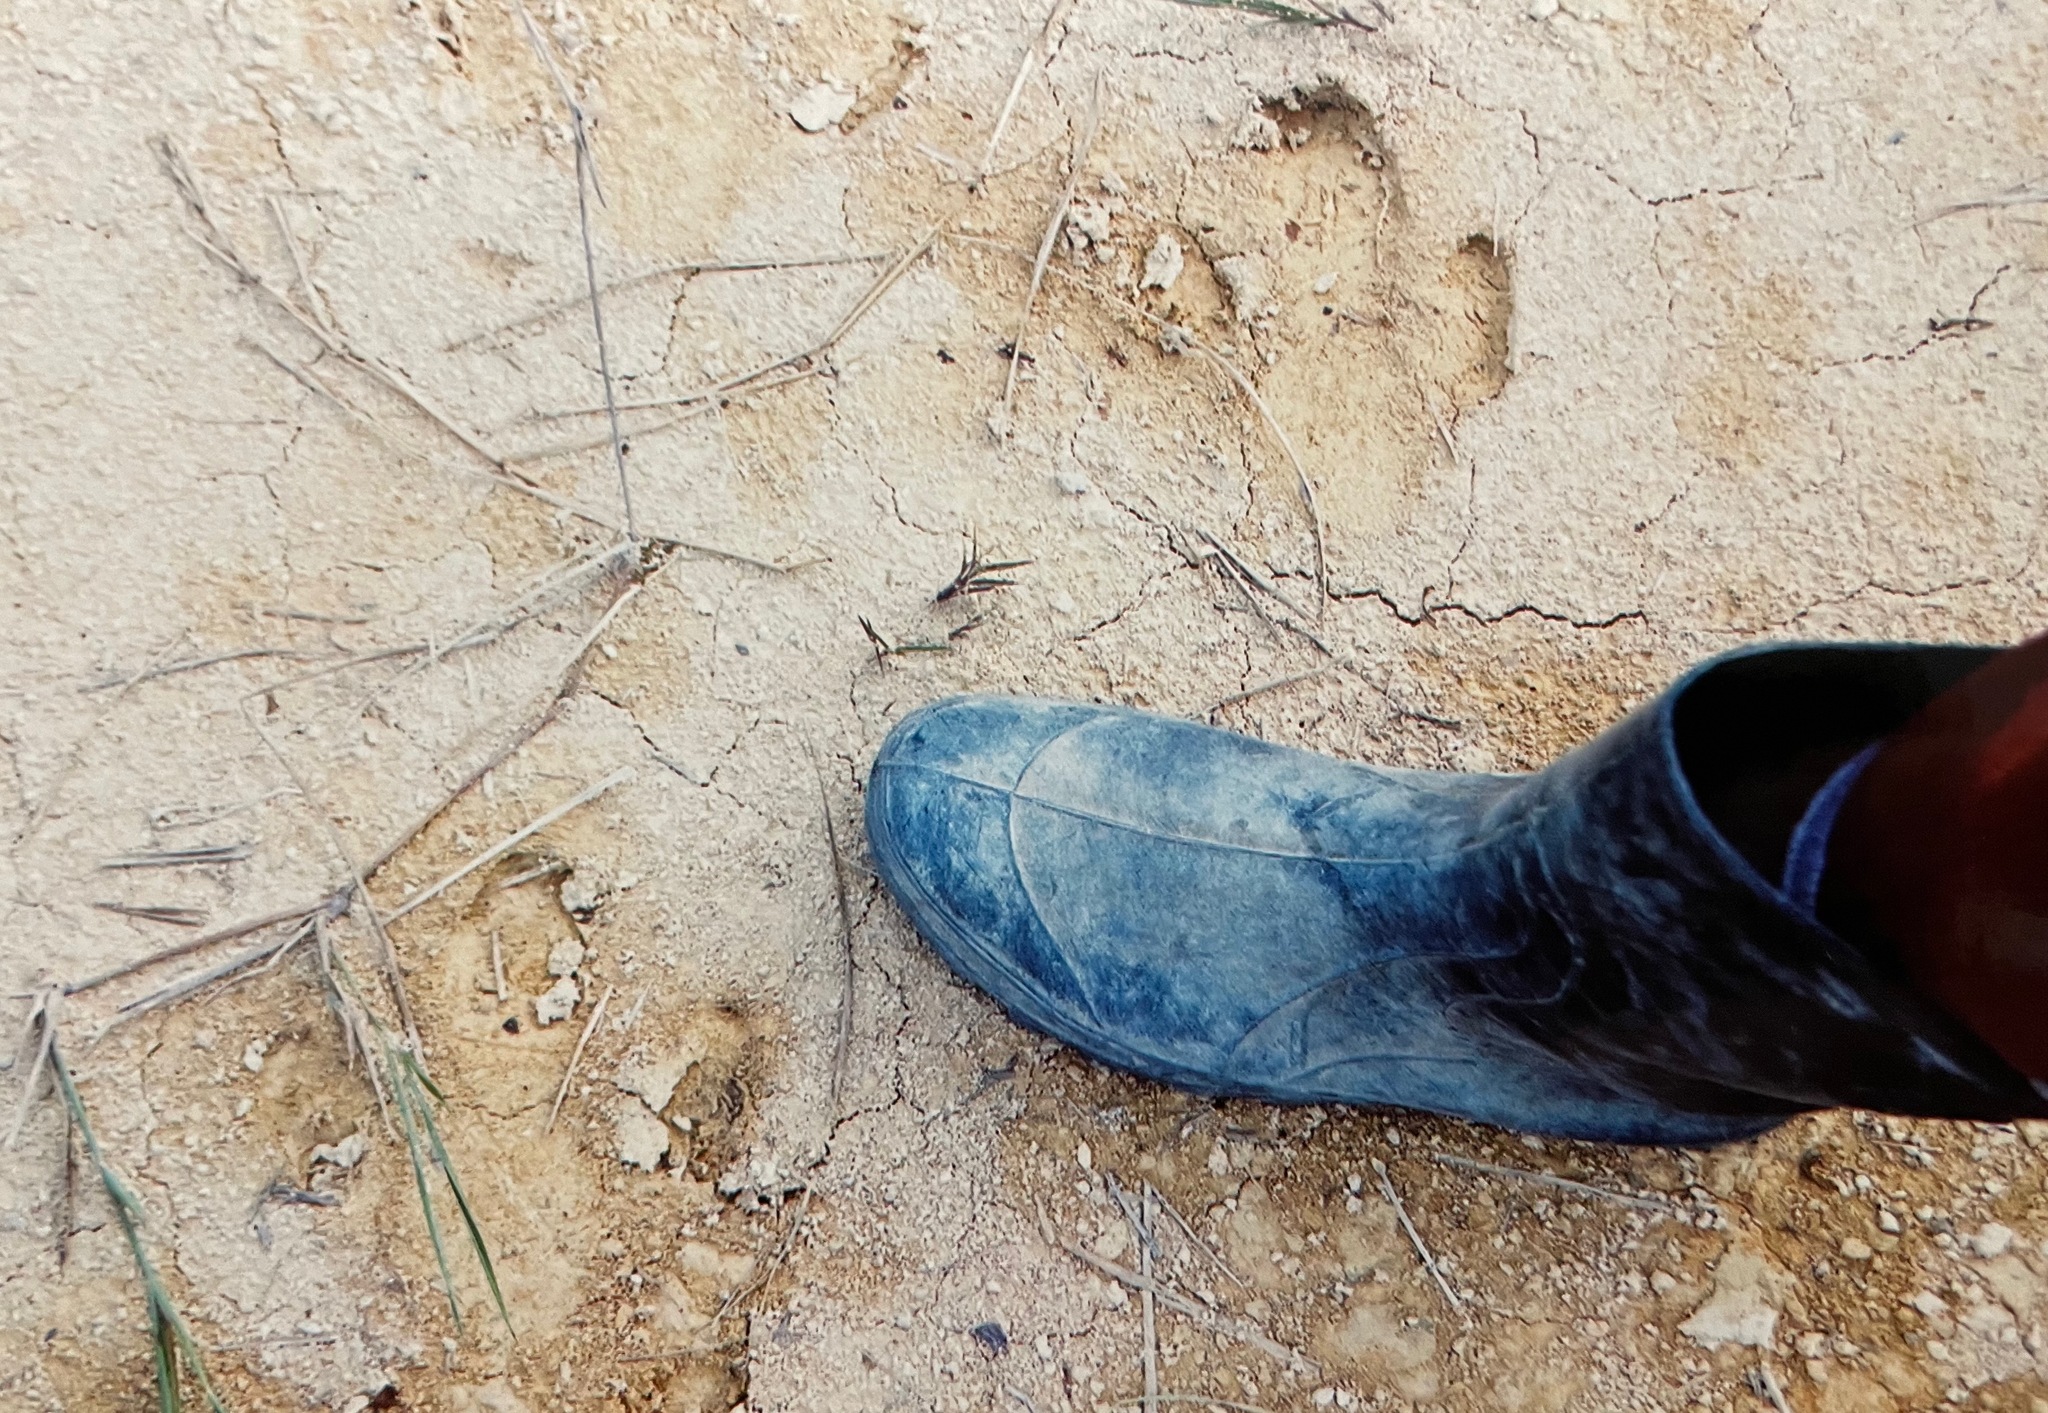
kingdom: Animalia
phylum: Chordata
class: Mammalia
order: Perissodactyla
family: Tapiridae
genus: Tapirus
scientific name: Tapirus terrestris
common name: Brazilian tapir
